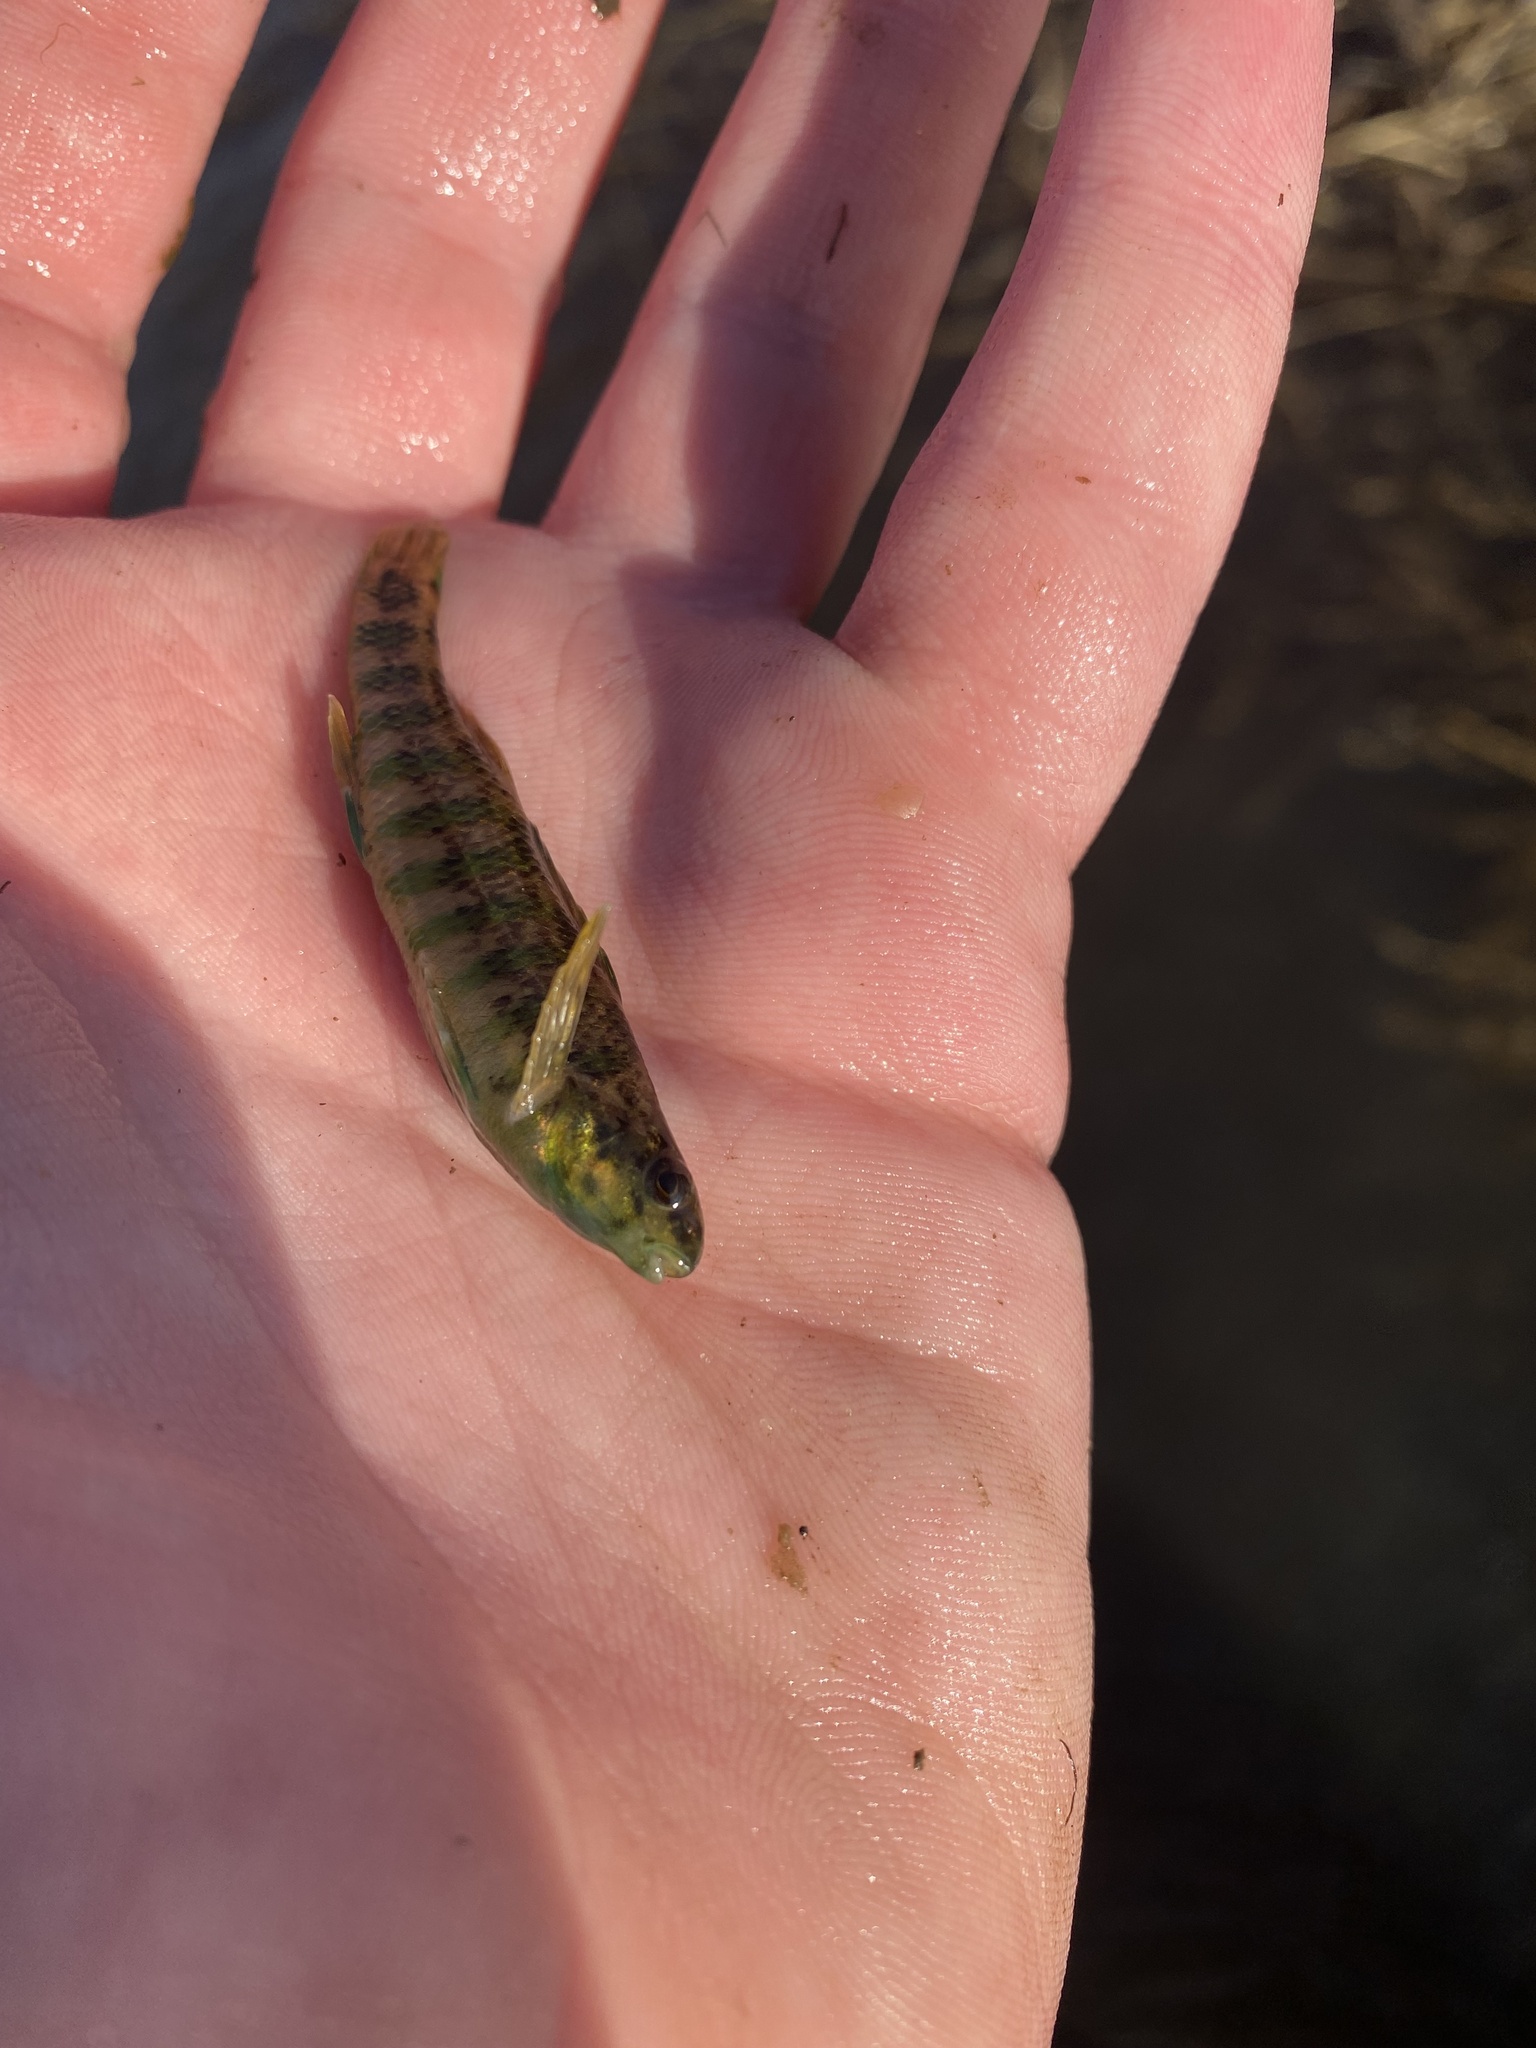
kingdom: Animalia
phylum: Chordata
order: Perciformes
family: Percidae
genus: Etheostoma
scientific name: Etheostoma zonale
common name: Banded darter
